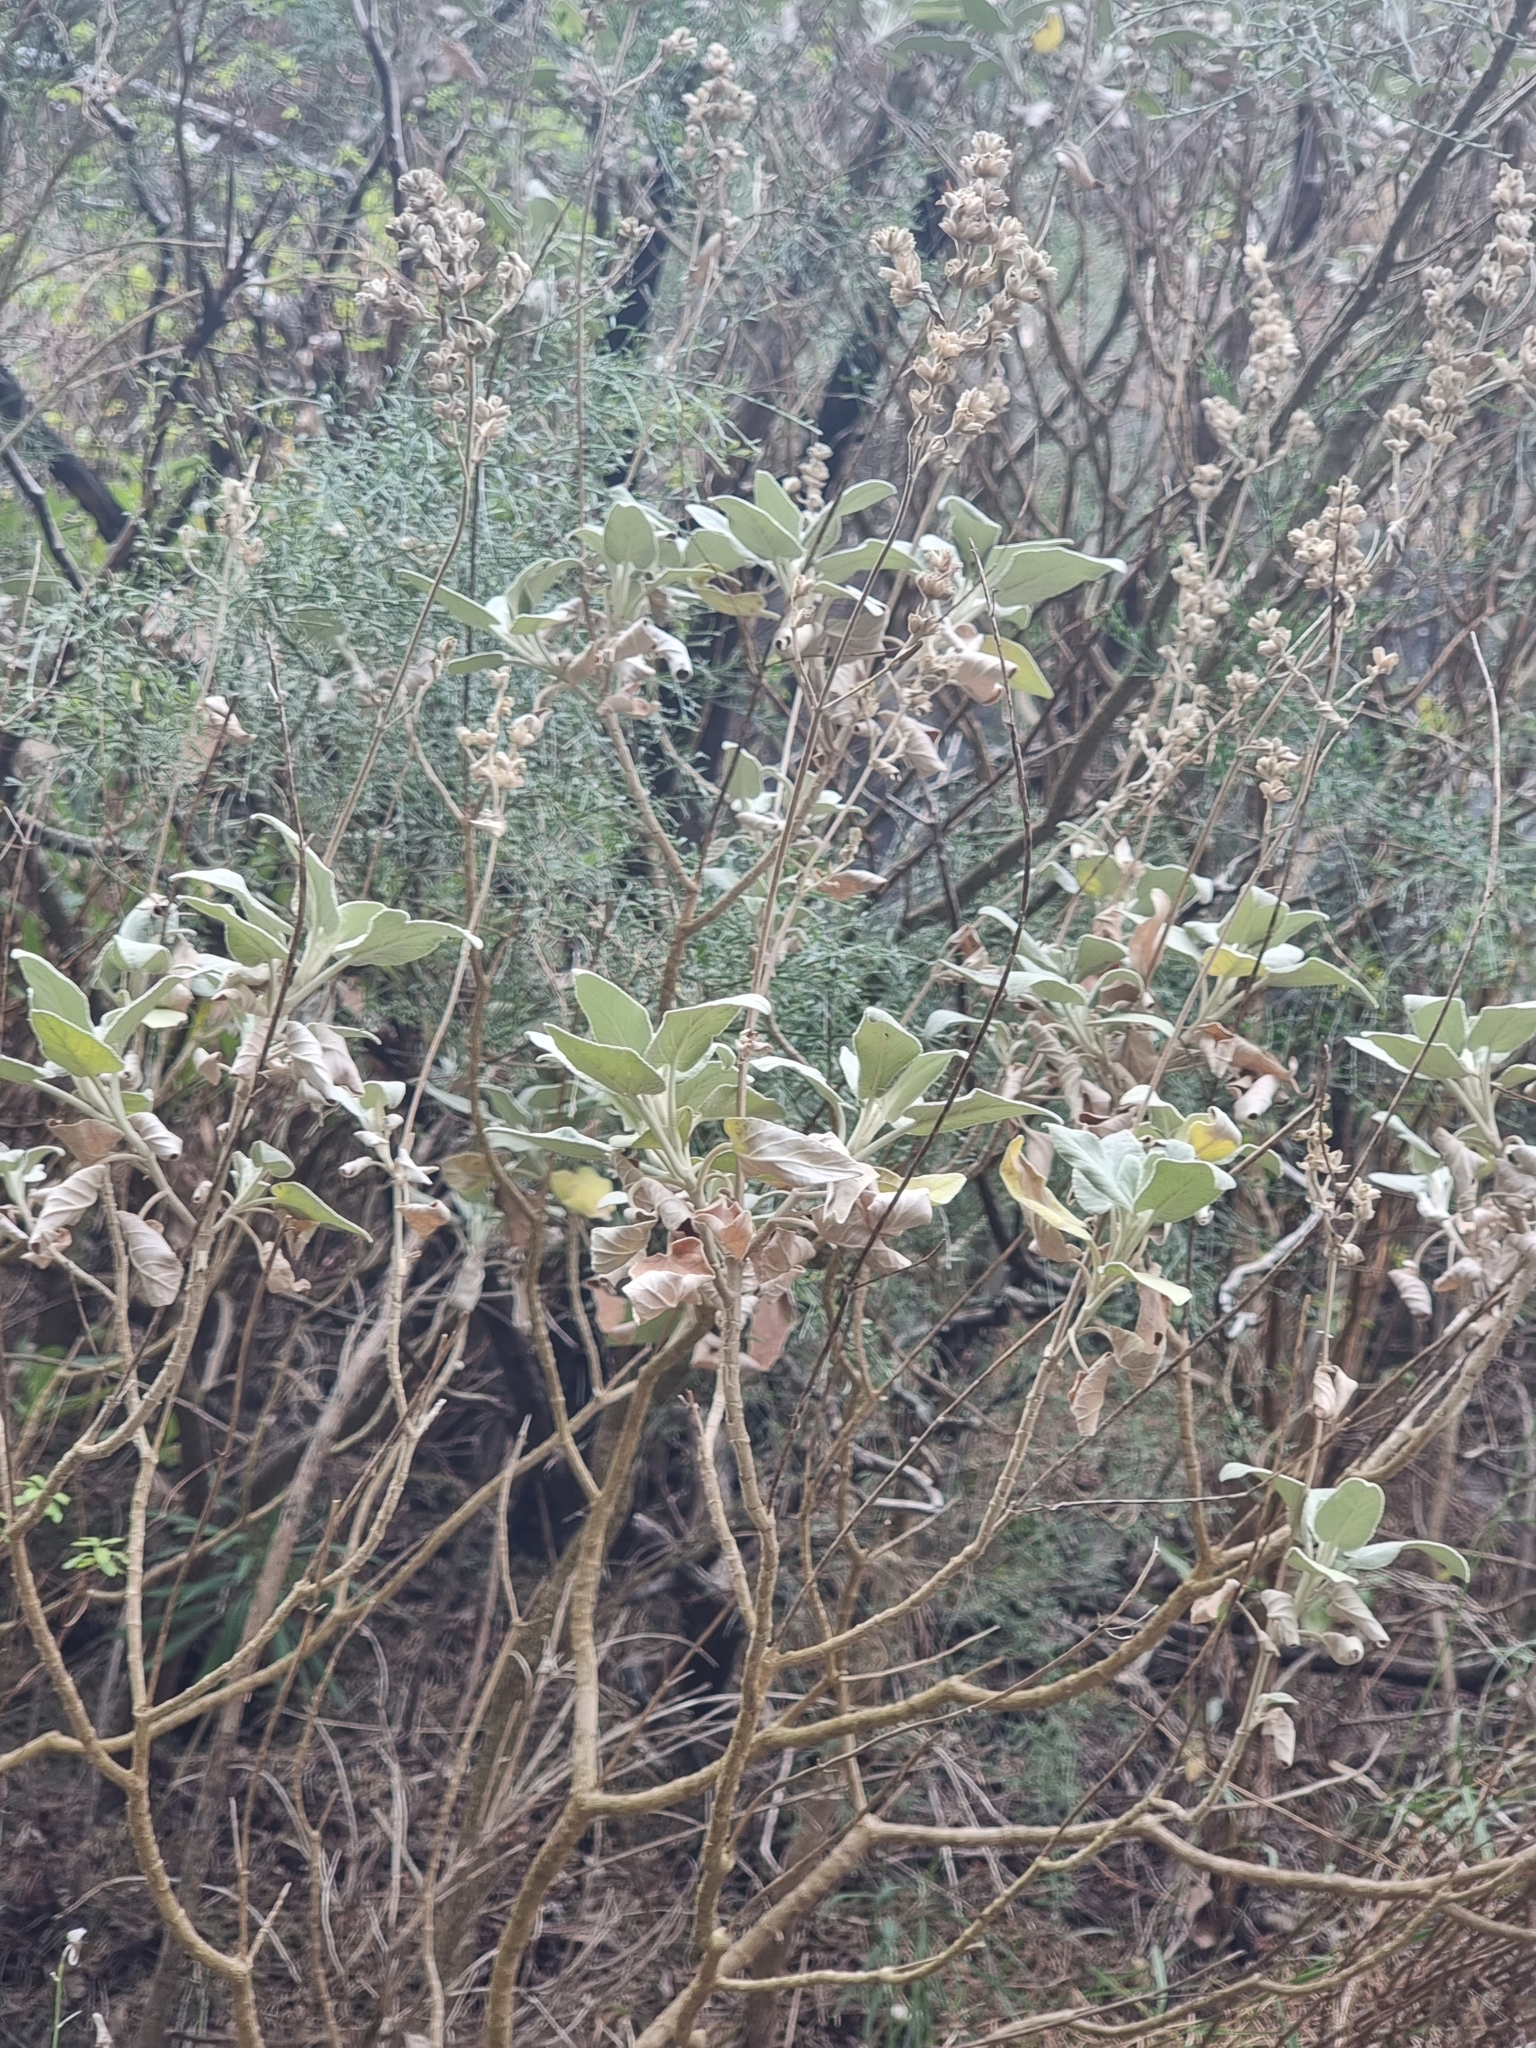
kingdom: Plantae
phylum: Tracheophyta
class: Magnoliopsida
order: Lamiales
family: Lamiaceae
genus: Sideritis
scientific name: Sideritis candicans
